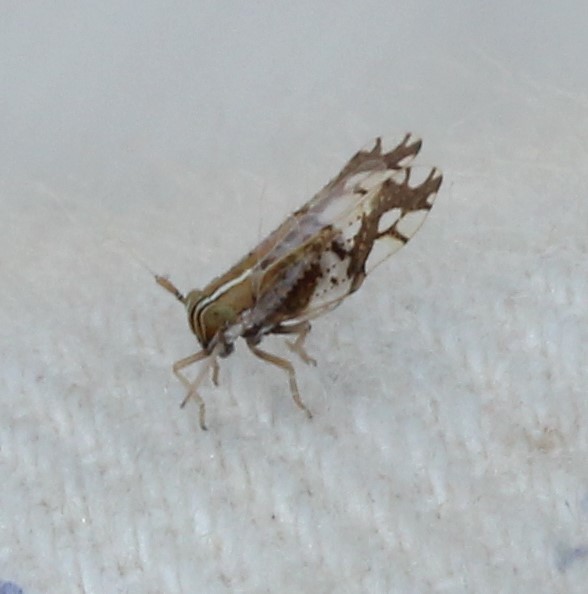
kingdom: Animalia
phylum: Arthropoda
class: Insecta
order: Hemiptera
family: Delphacidae
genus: Liburniella
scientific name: Liburniella ornata
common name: Ornate planthopper
